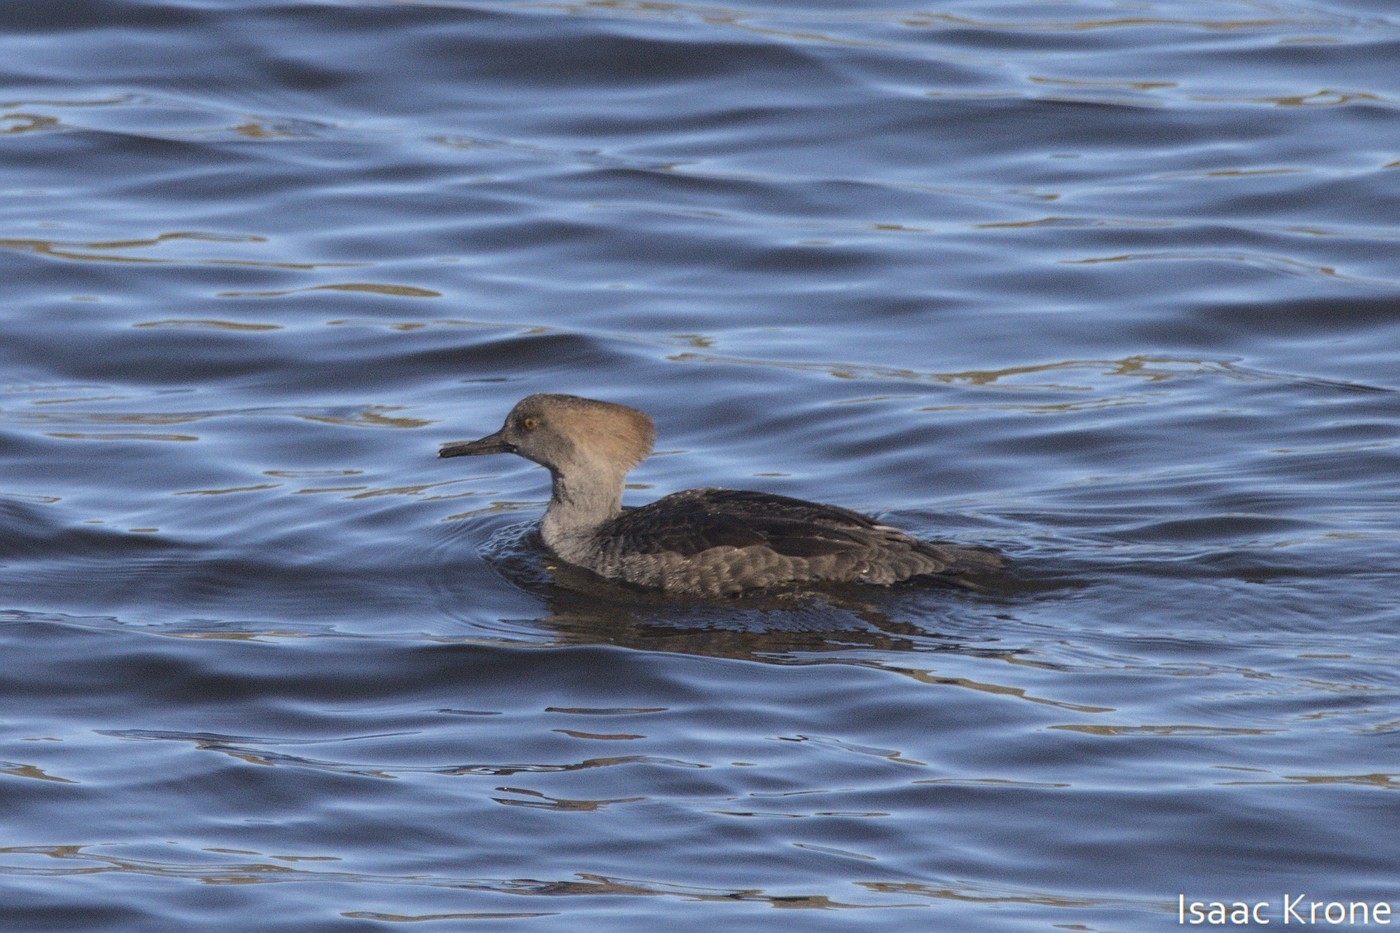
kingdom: Animalia
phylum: Chordata
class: Aves
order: Anseriformes
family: Anatidae
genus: Lophodytes
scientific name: Lophodytes cucullatus
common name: Hooded merganser
